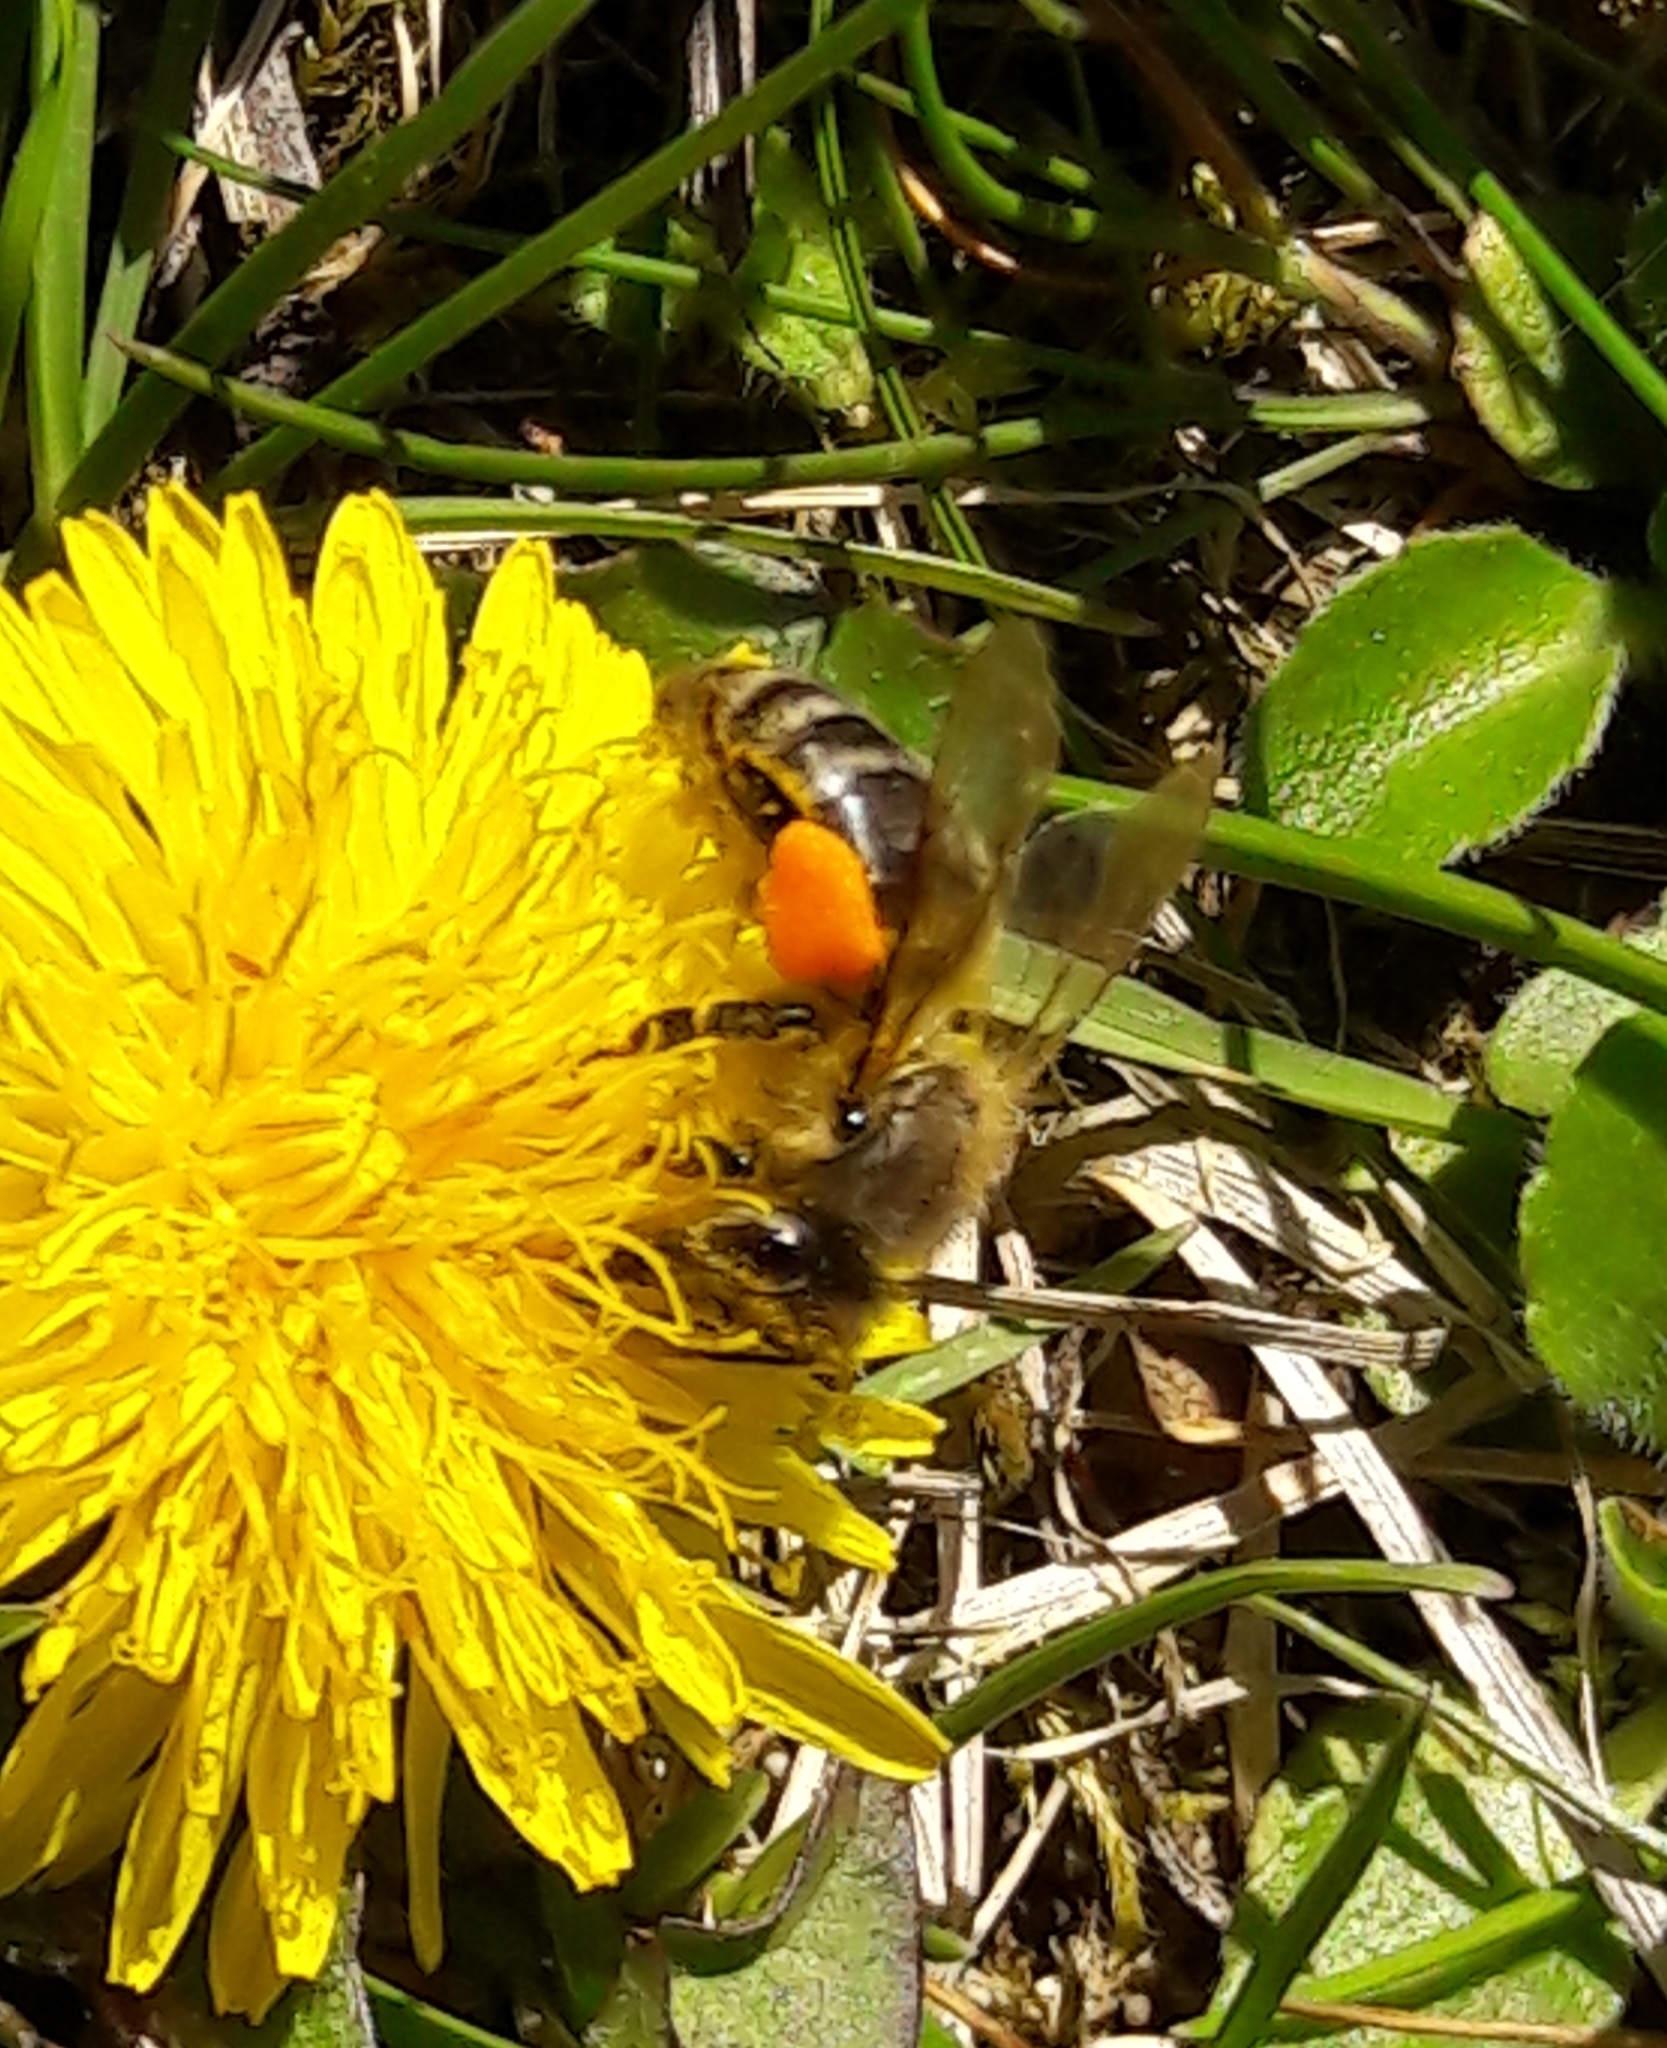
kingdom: Animalia
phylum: Arthropoda
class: Insecta
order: Hymenoptera
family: Apidae
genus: Apis
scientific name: Apis mellifera
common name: Honey bee
